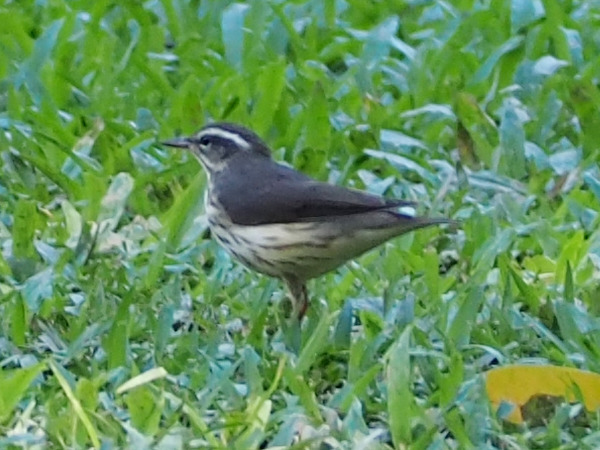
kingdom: Animalia
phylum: Chordata
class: Aves
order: Passeriformes
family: Parulidae
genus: Parkesia
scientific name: Parkesia motacilla
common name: Louisiana waterthrush
